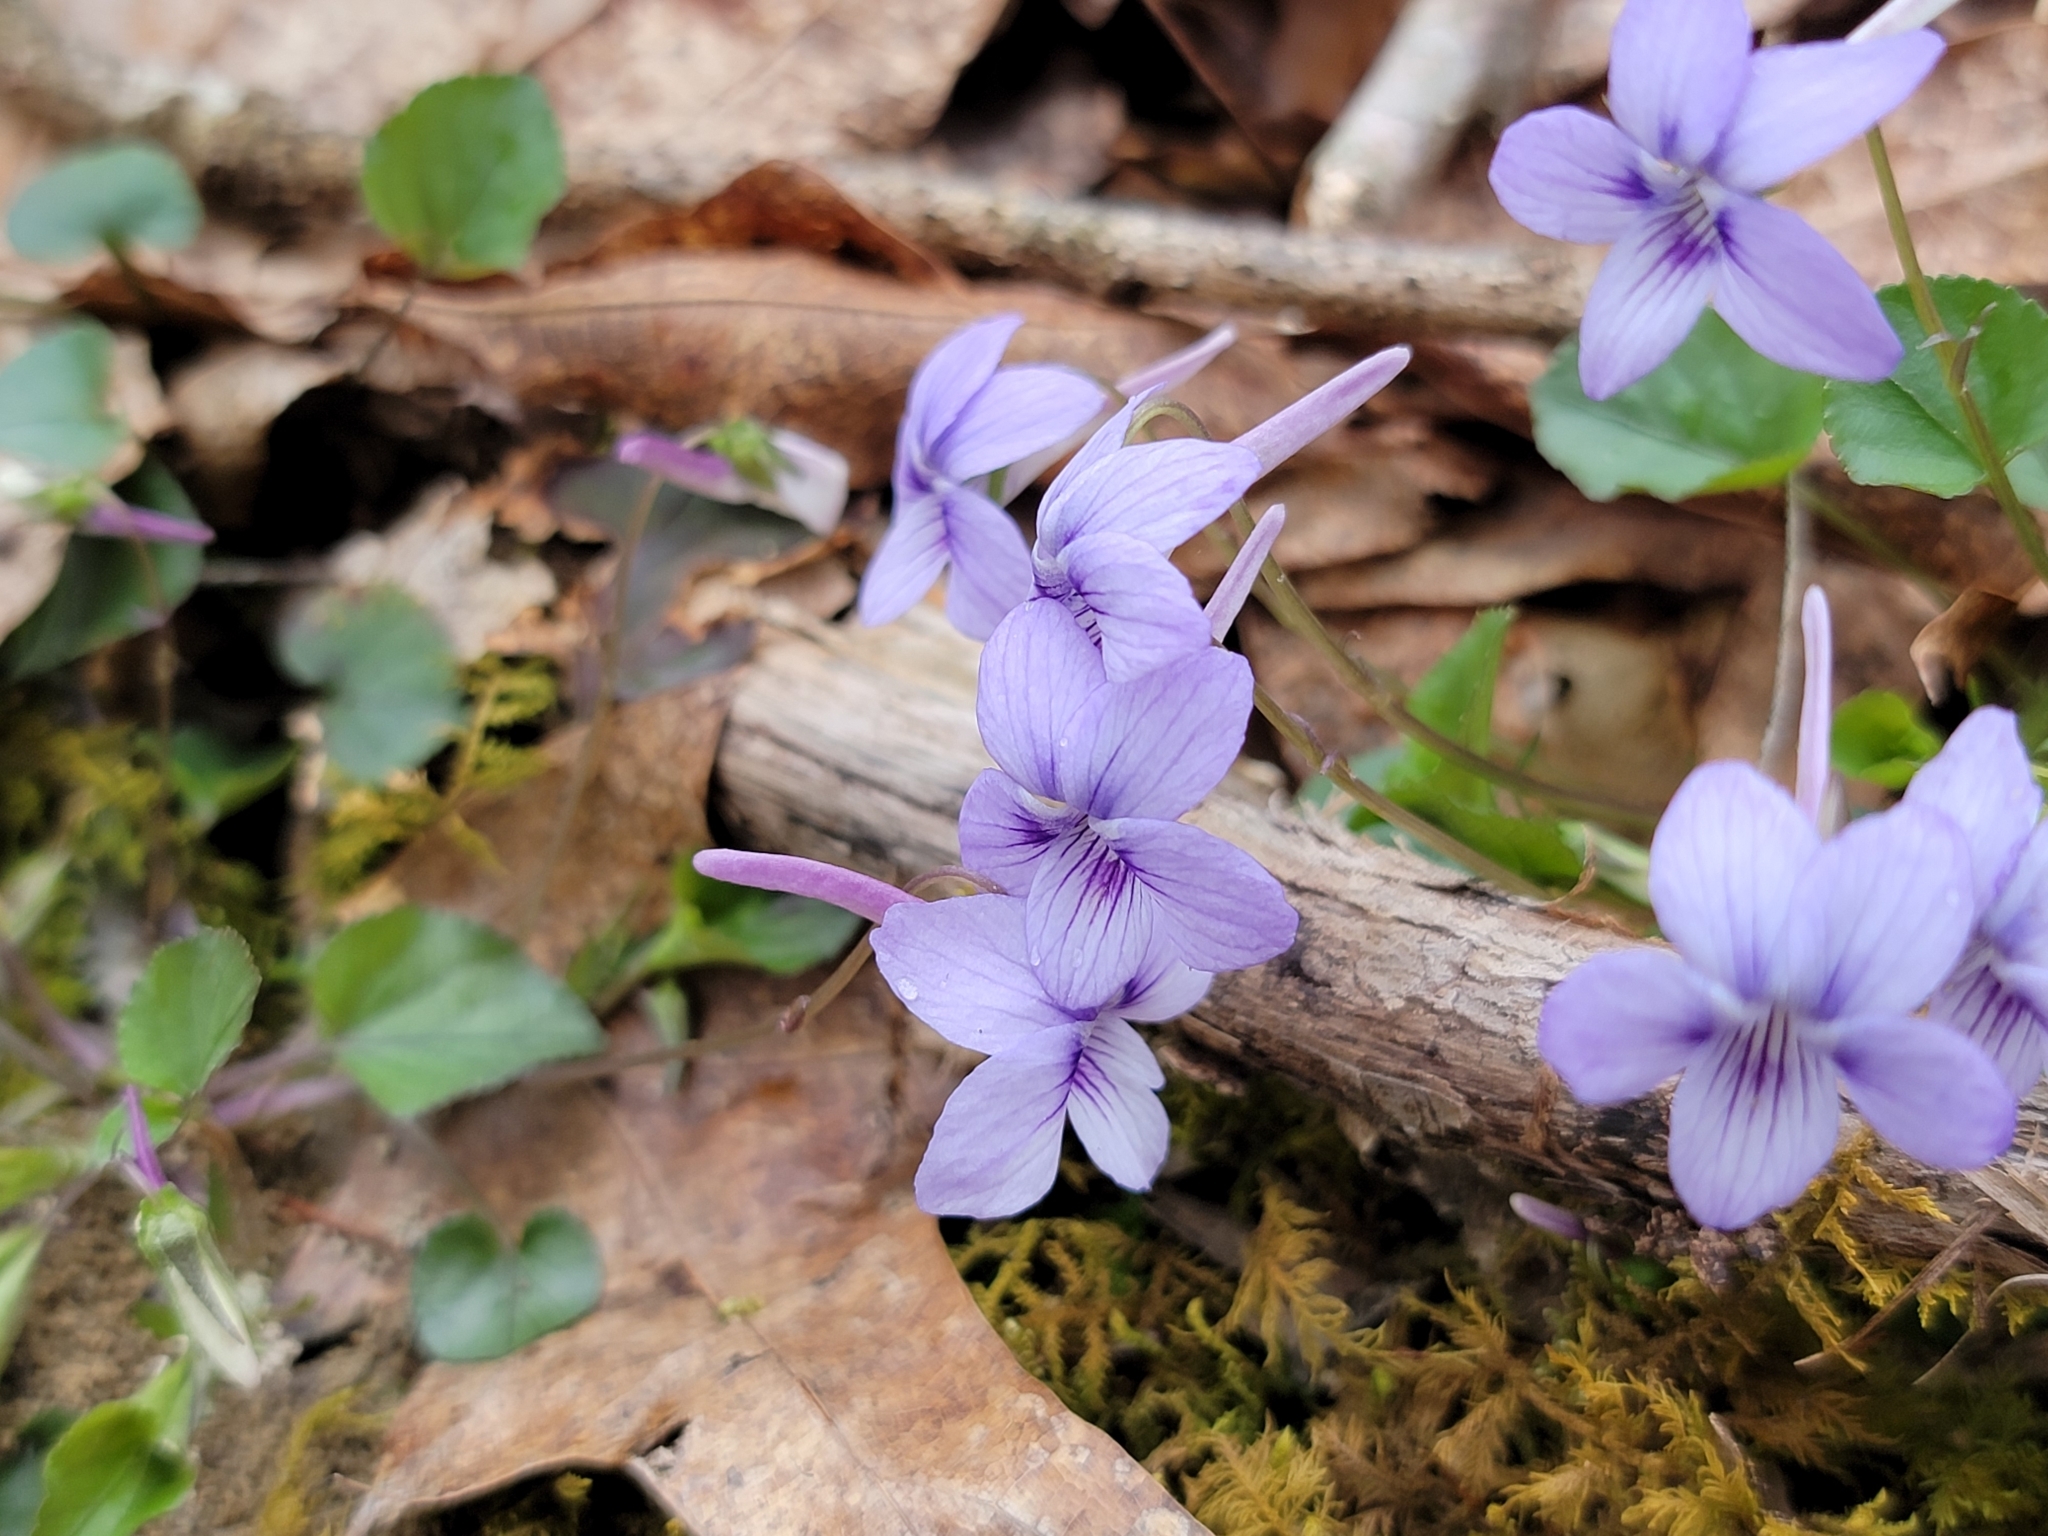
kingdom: Plantae
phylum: Tracheophyta
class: Magnoliopsida
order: Malpighiales
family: Violaceae
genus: Viola
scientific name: Viola rostrata
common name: Long-spur violet
